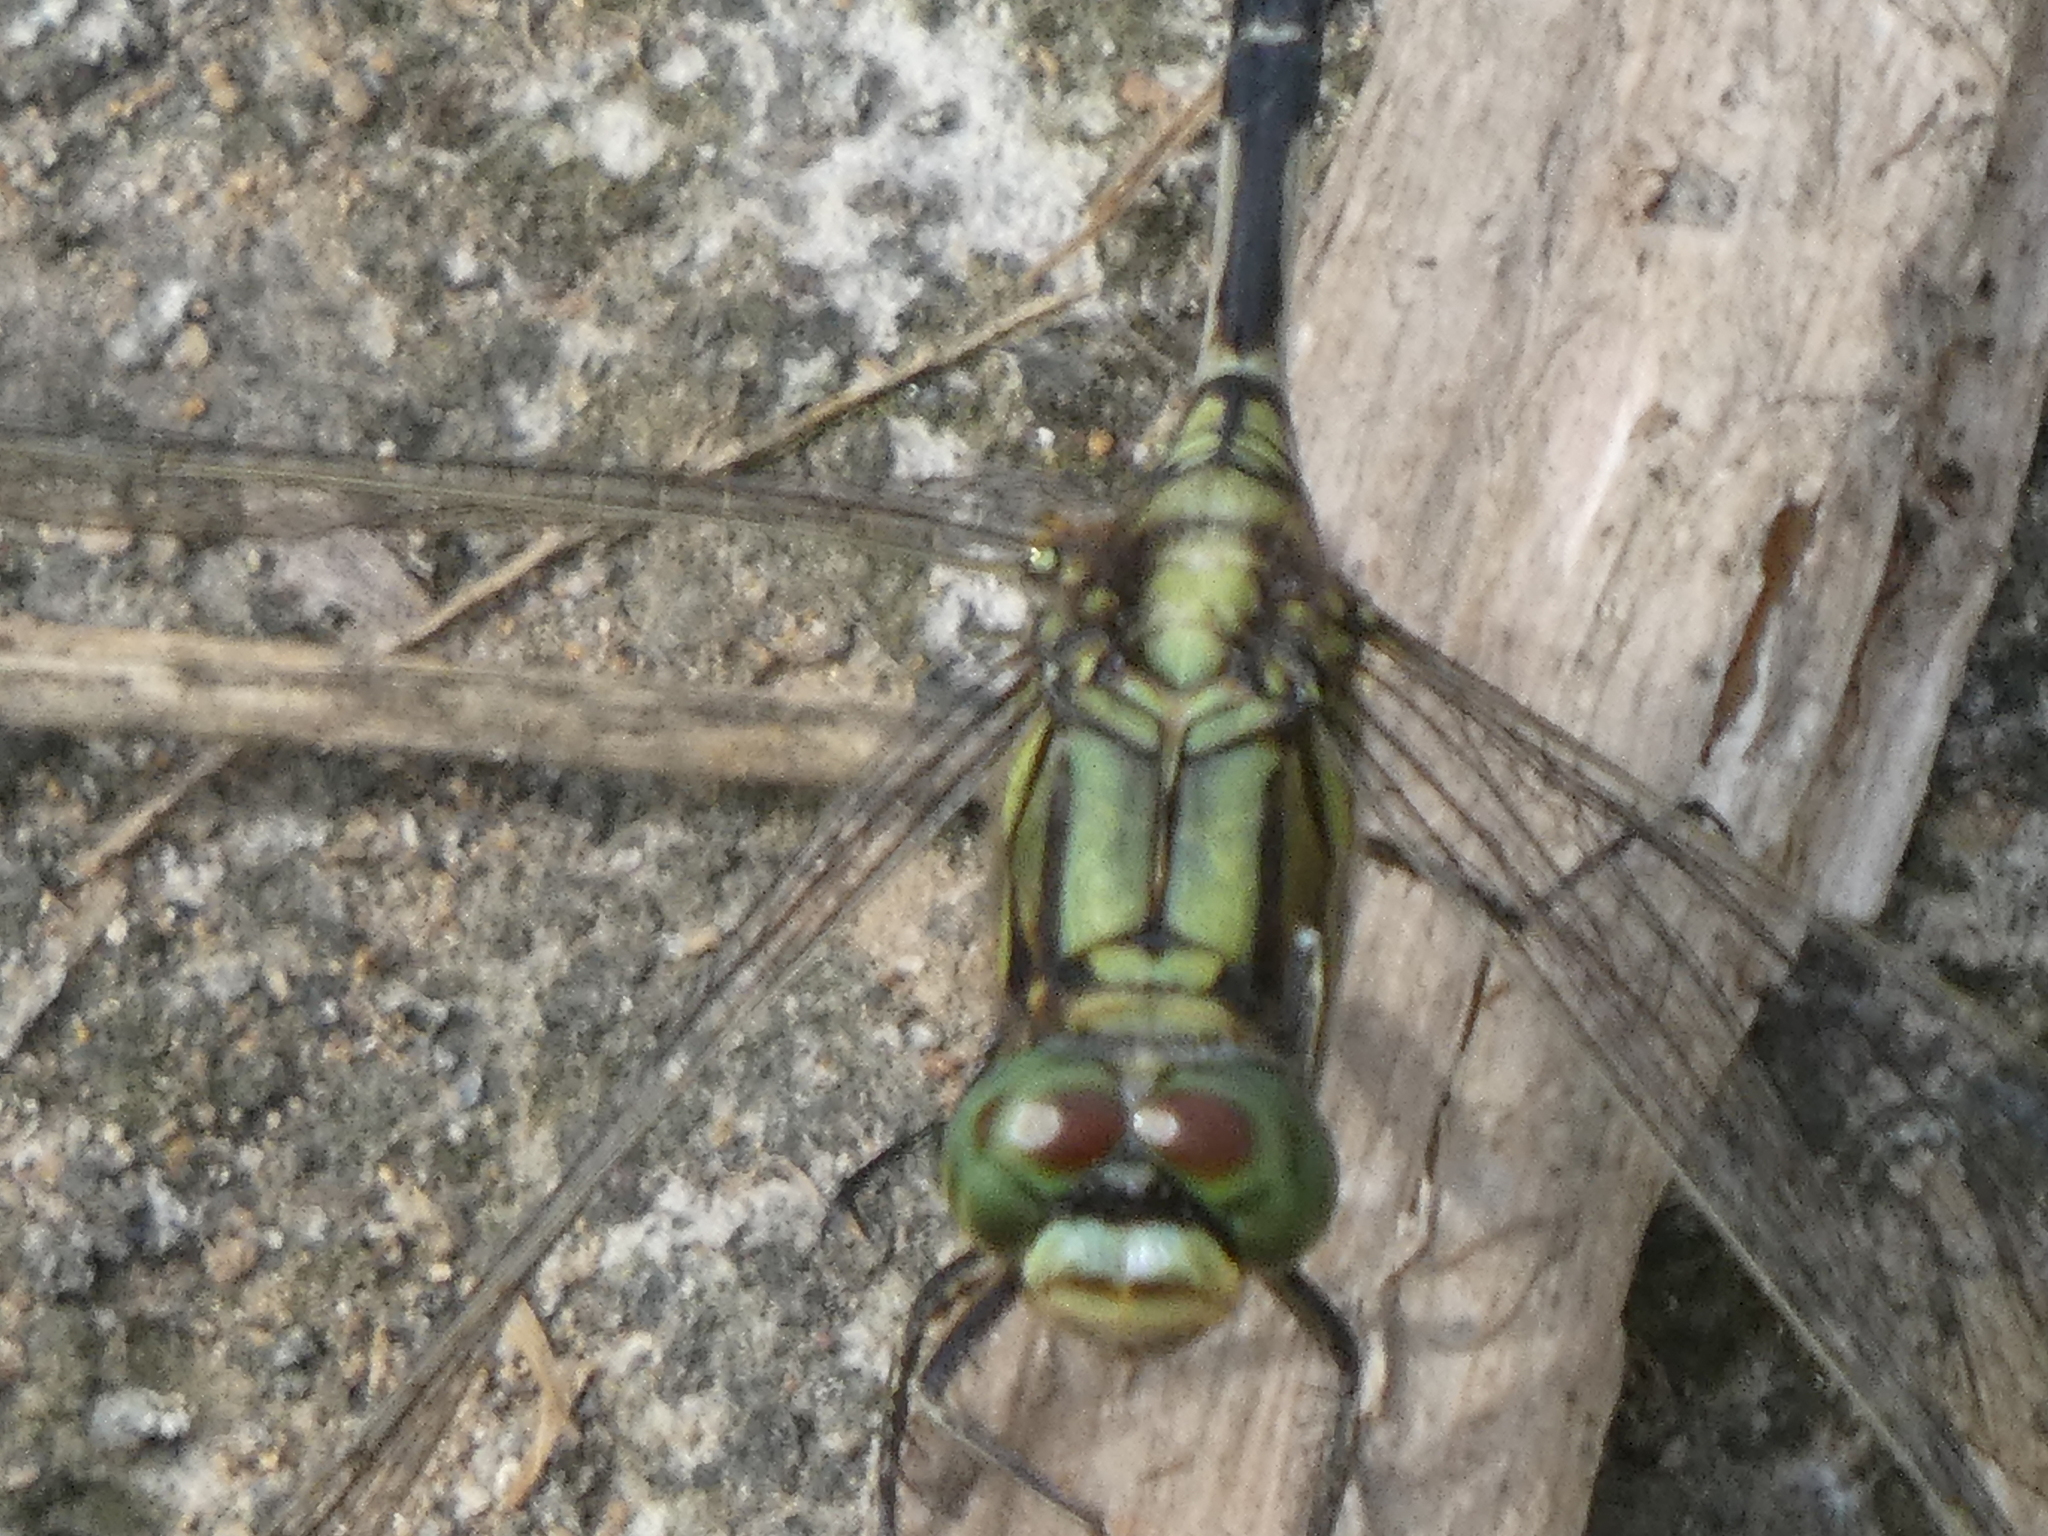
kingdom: Animalia
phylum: Arthropoda
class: Insecta
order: Odonata
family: Libellulidae
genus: Orthetrum
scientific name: Orthetrum sabina
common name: Slender skimmer
